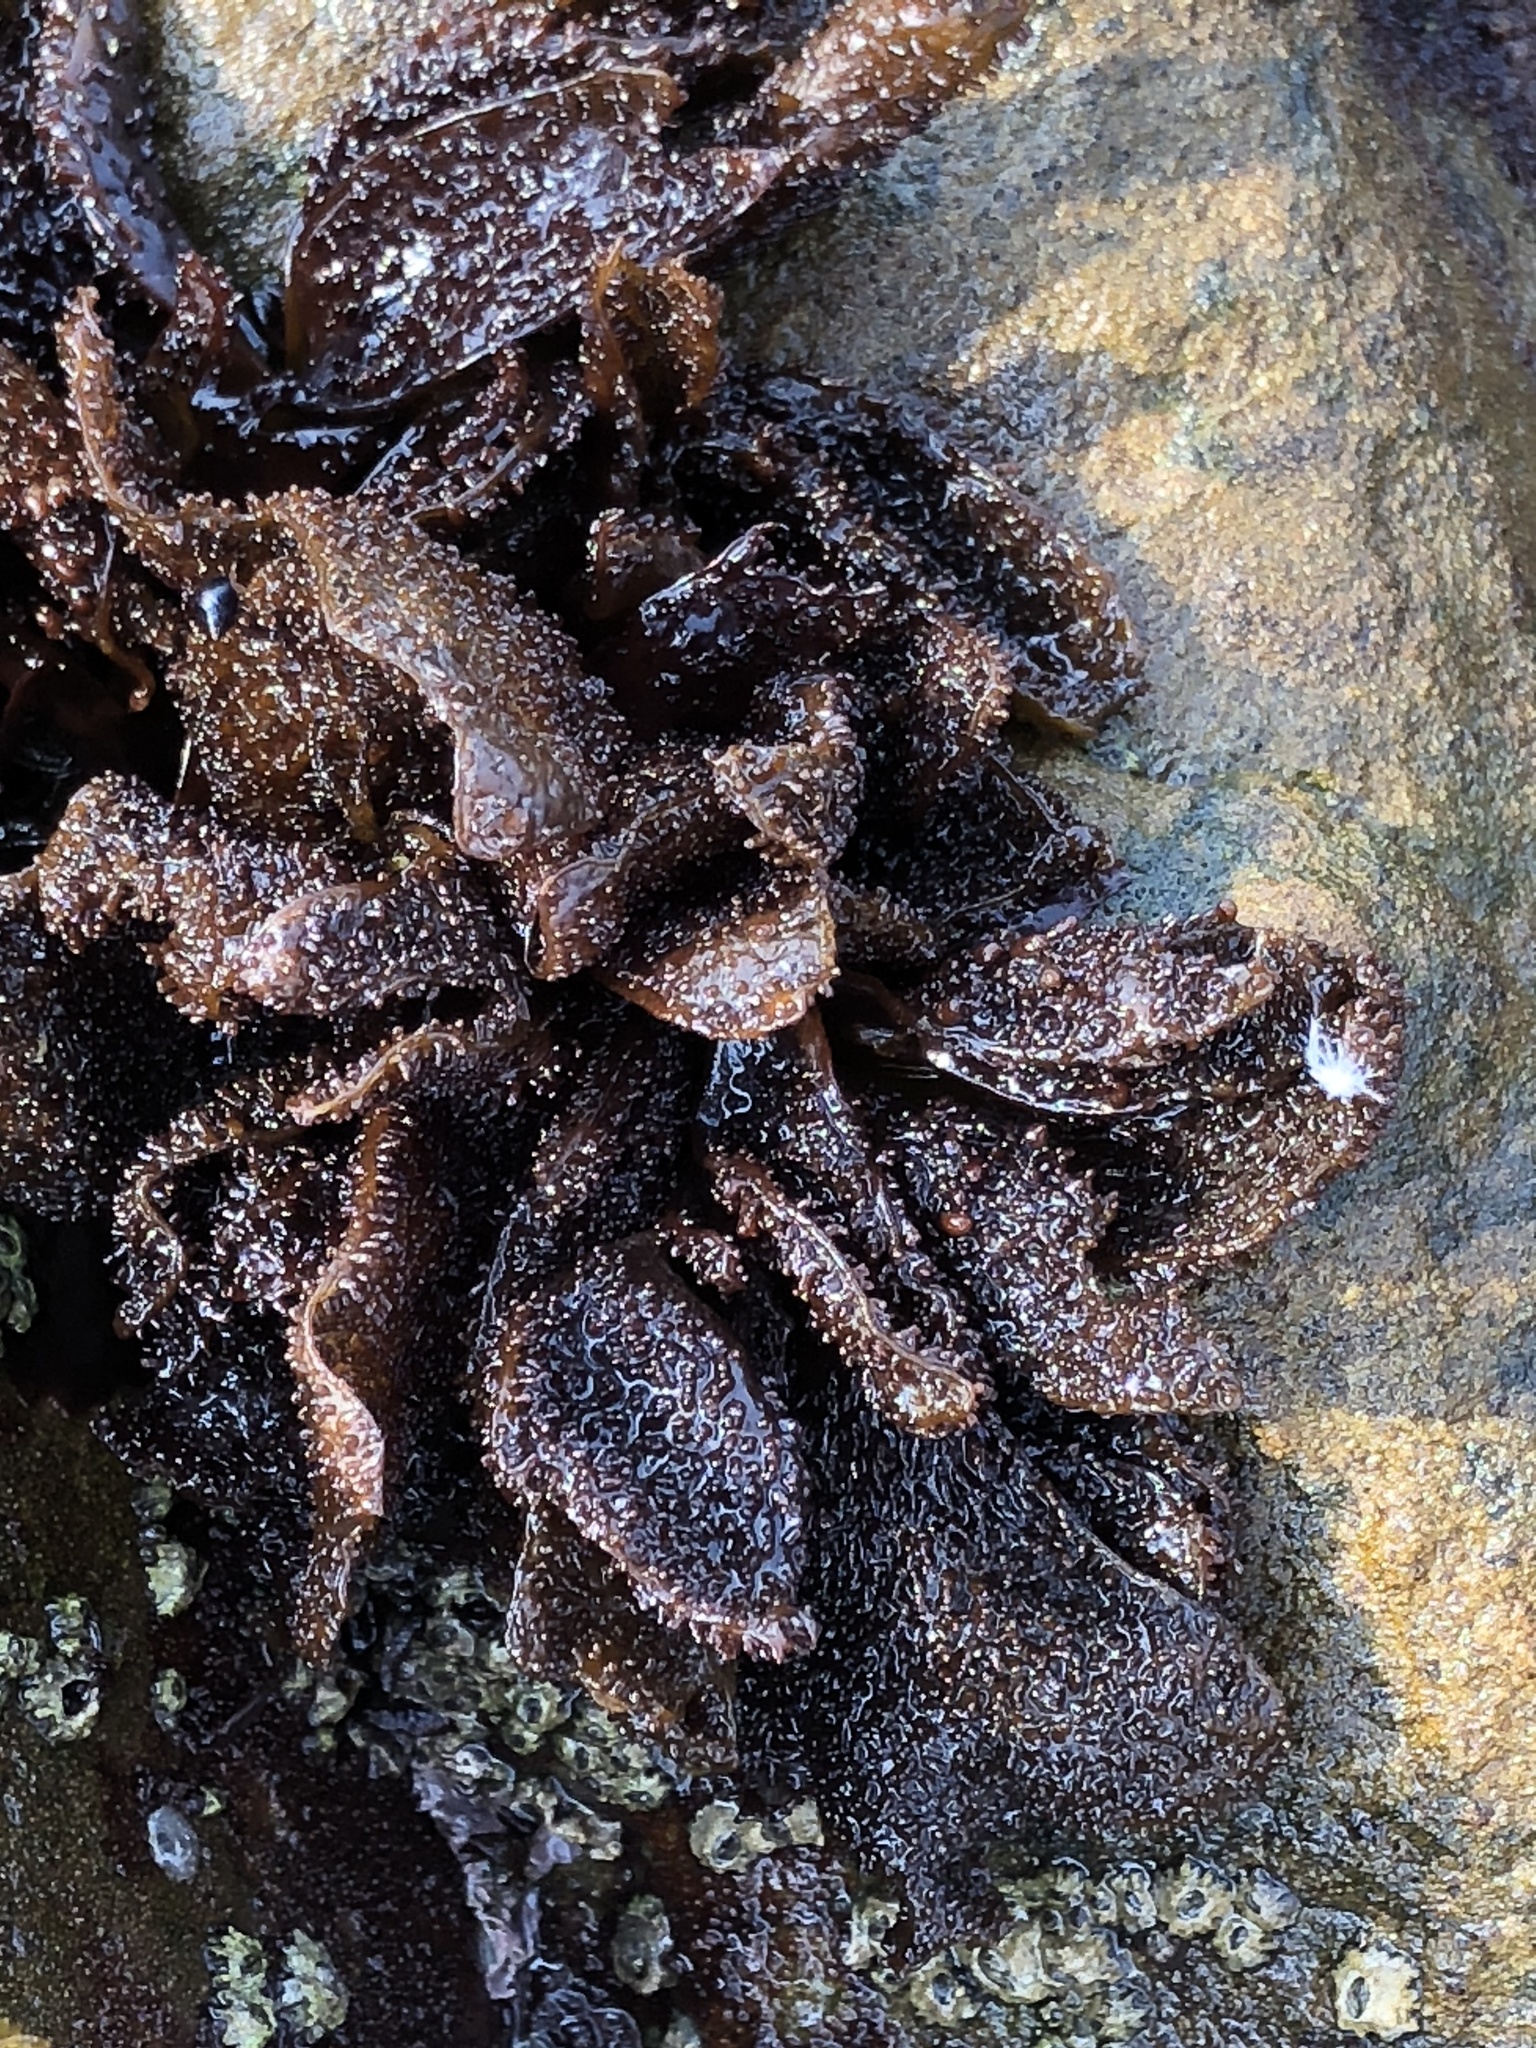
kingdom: Plantae
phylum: Rhodophyta
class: Florideophyceae
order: Gigartinales
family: Phyllophoraceae
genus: Mastocarpus
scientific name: Mastocarpus papillatus
